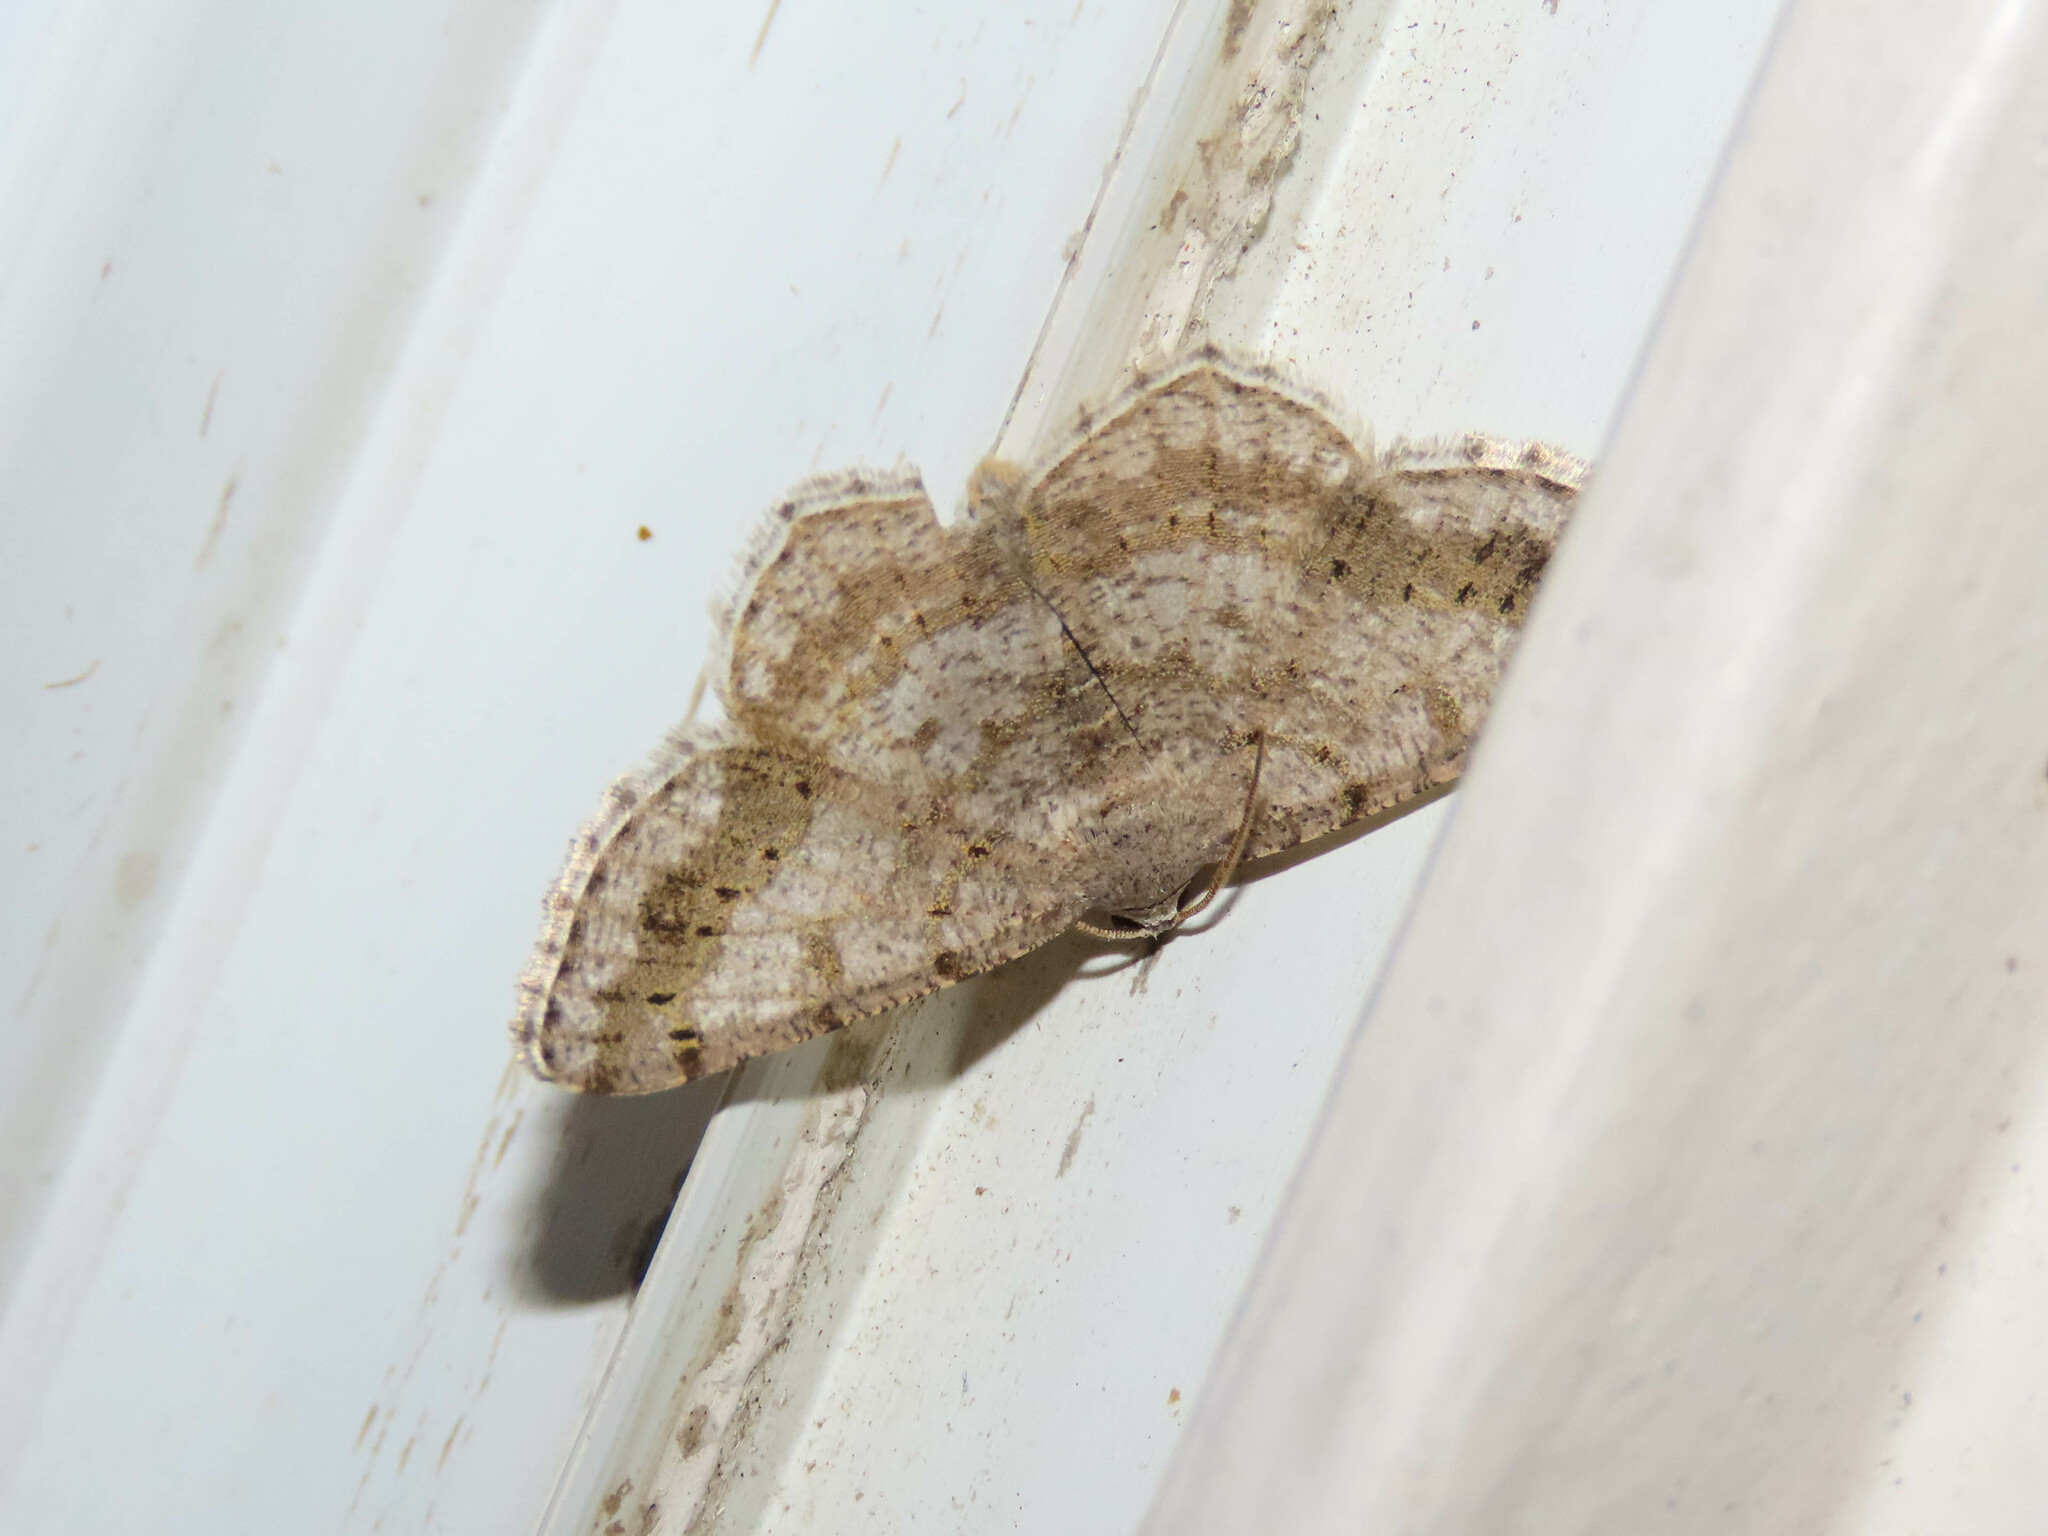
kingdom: Animalia
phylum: Arthropoda
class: Insecta
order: Lepidoptera
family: Geometridae
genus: Digrammia
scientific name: Digrammia ocellinata
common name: Faint-spotted angle
